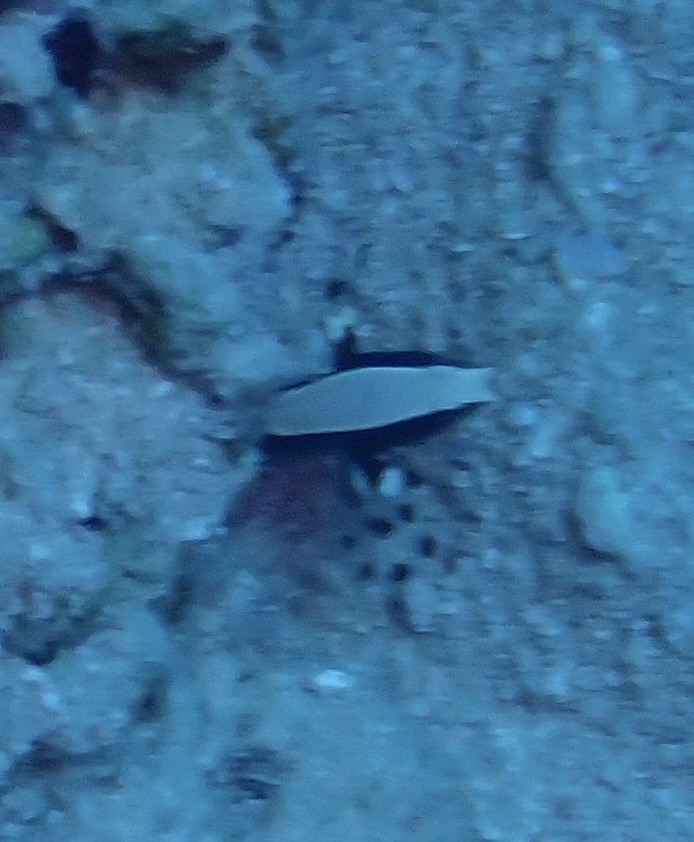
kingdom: Animalia
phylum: Chordata
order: Perciformes
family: Gobiidae
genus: Lotilia
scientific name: Lotilia graciliosa
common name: Whitecap goby
